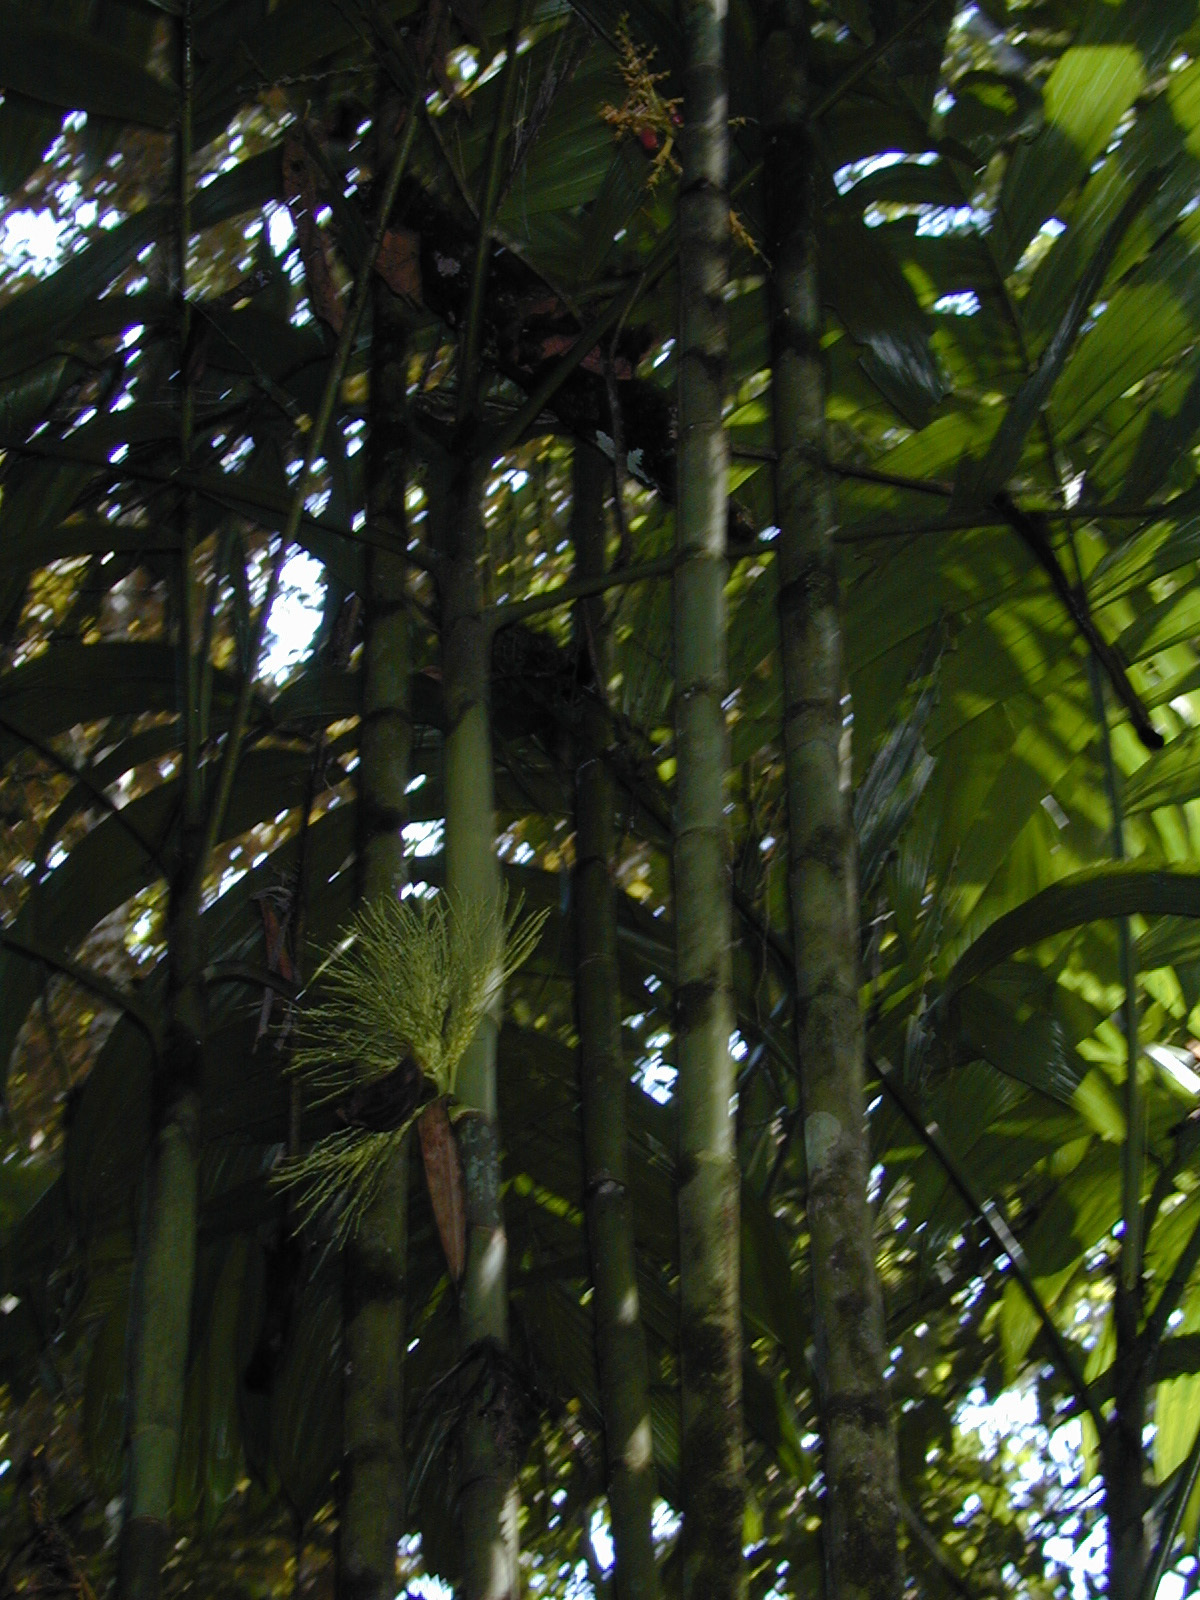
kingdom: Plantae
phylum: Tracheophyta
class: Liliopsida
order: Arecales
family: Arecaceae
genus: Areca
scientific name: Areca triandra
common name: Australian areca palm
